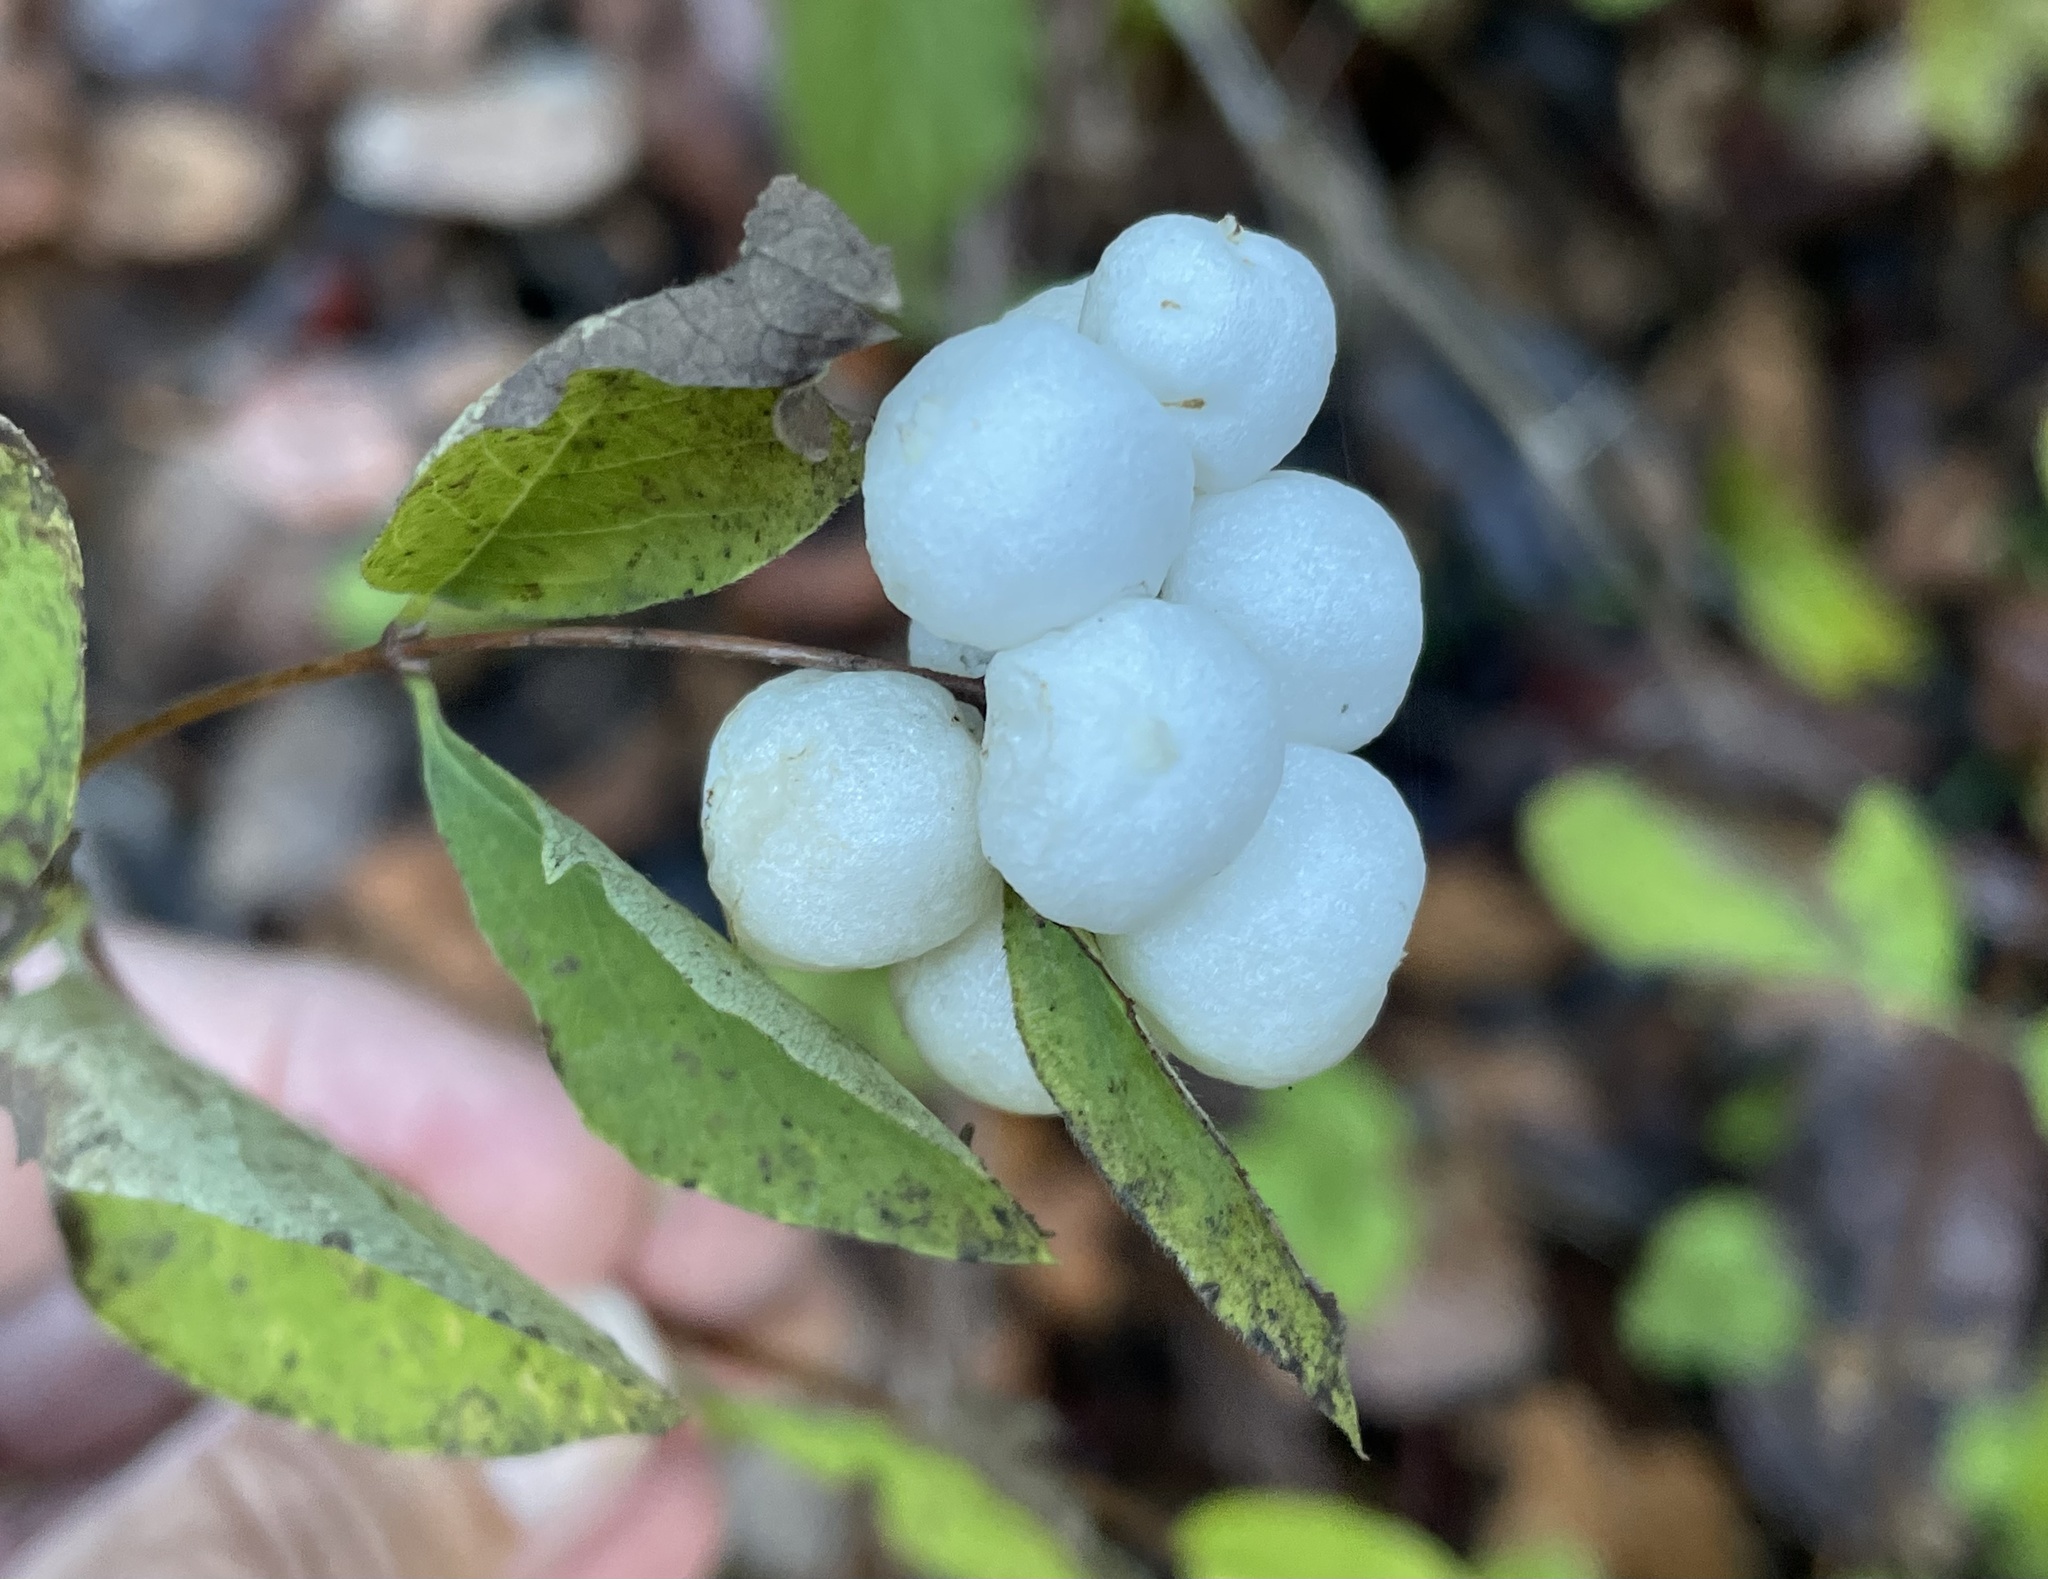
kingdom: Plantae
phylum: Tracheophyta
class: Magnoliopsida
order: Dipsacales
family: Caprifoliaceae
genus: Symphoricarpos
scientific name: Symphoricarpos mollis
